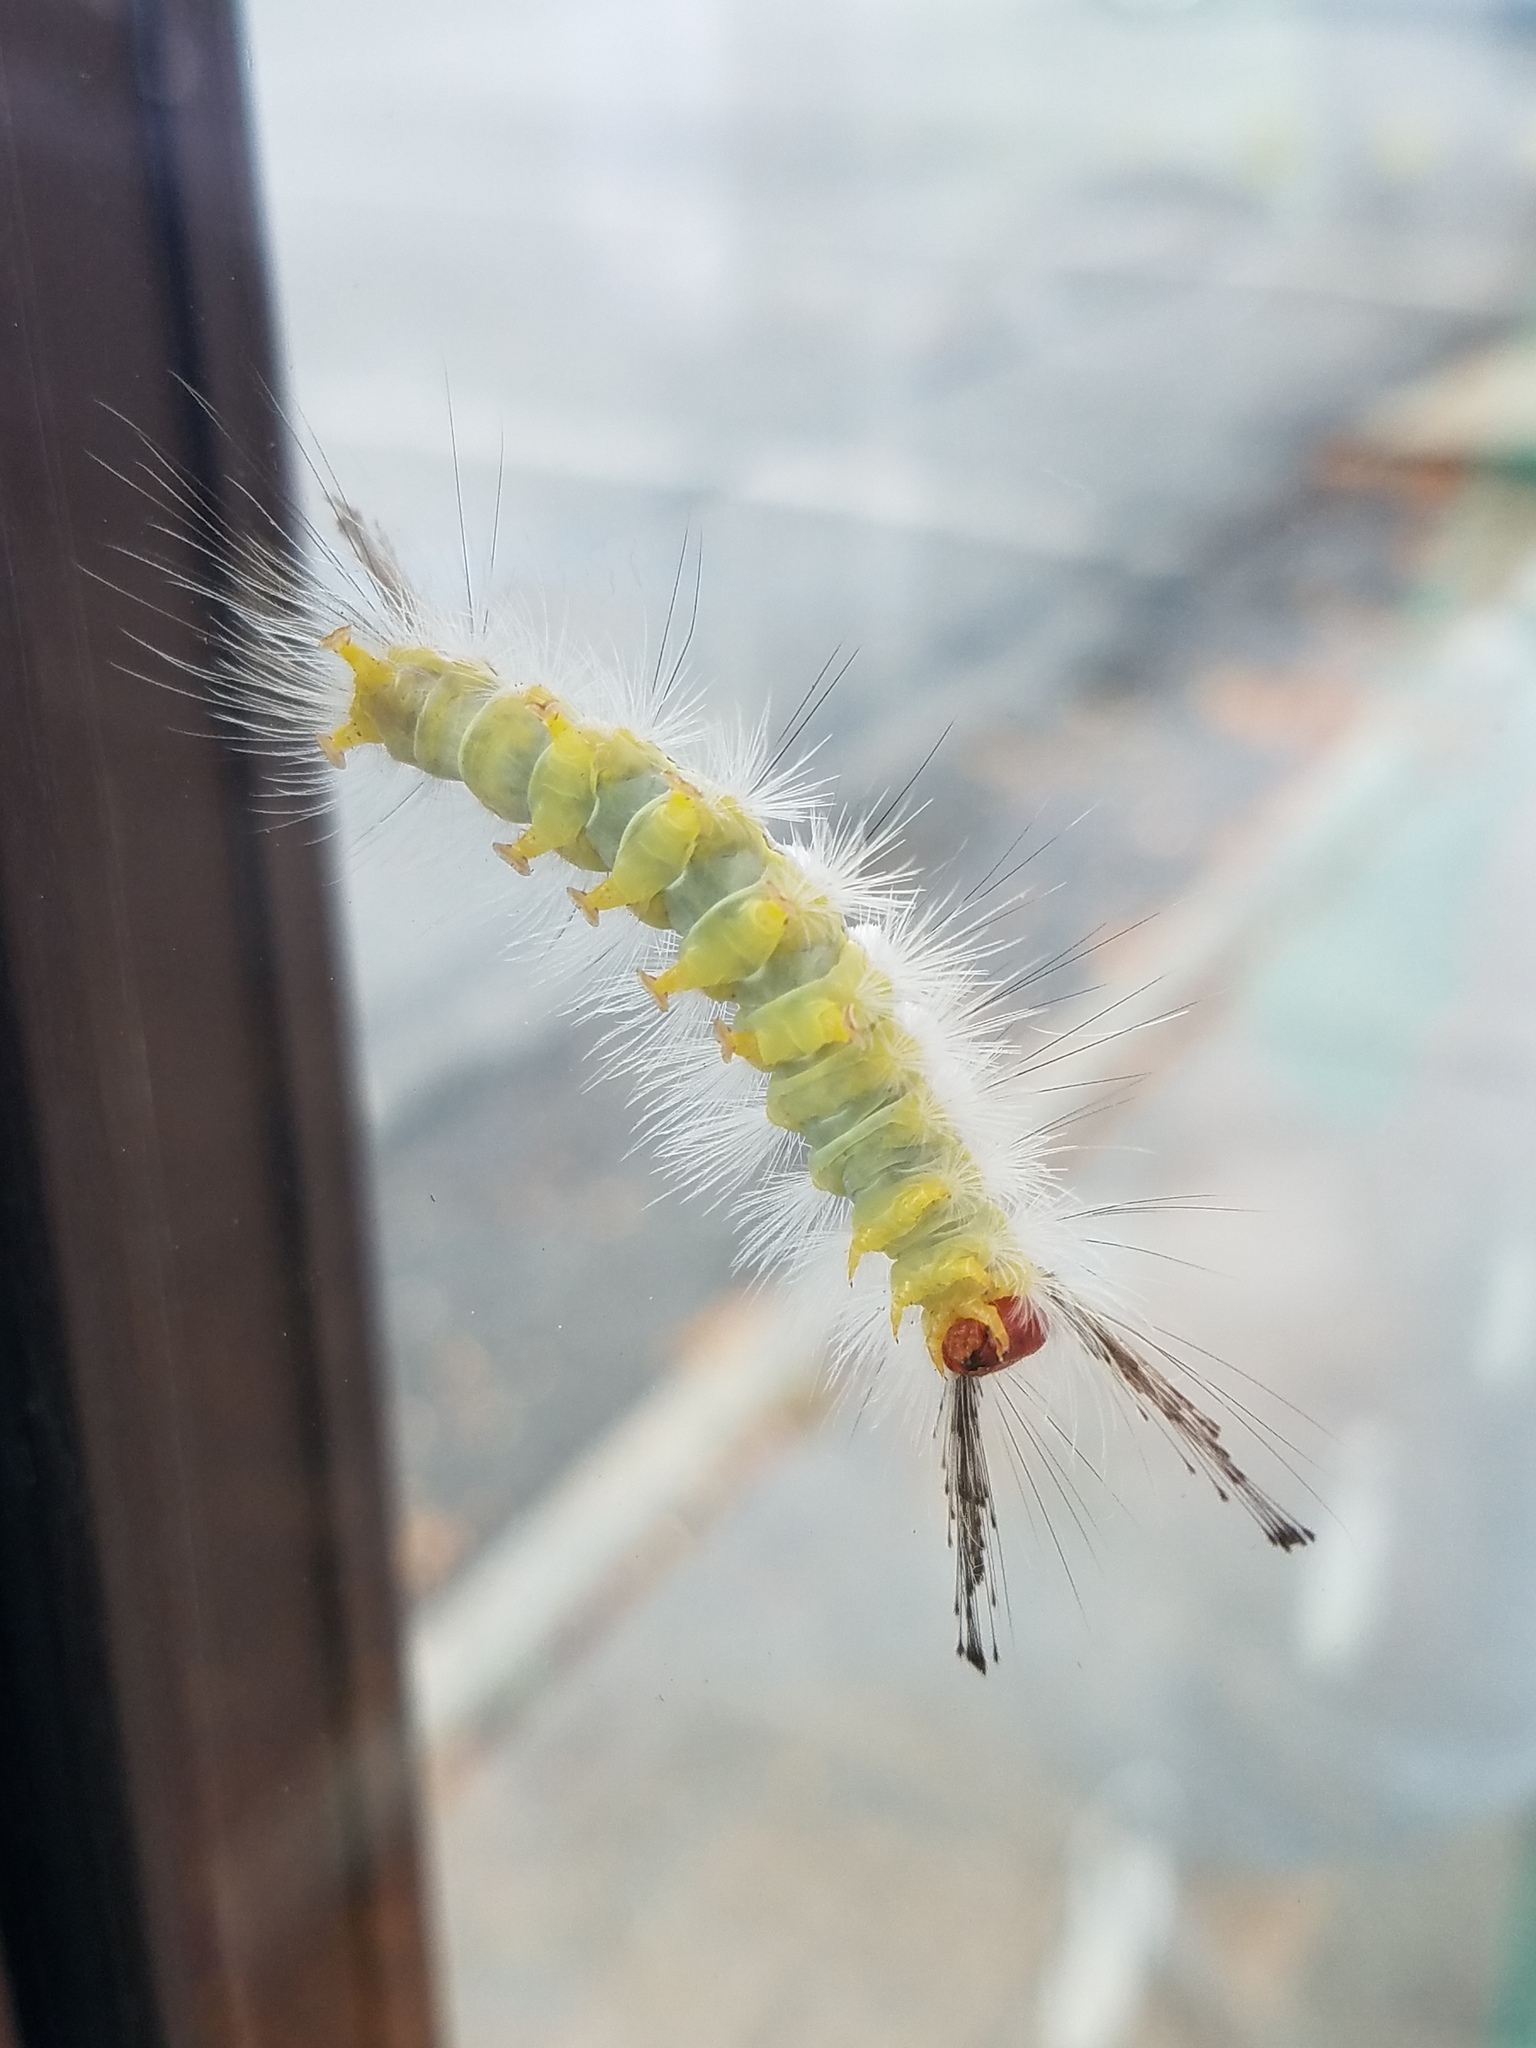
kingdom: Animalia
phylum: Arthropoda
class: Insecta
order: Lepidoptera
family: Erebidae
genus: Orgyia
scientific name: Orgyia leucostigma
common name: White-marked tussock moth
